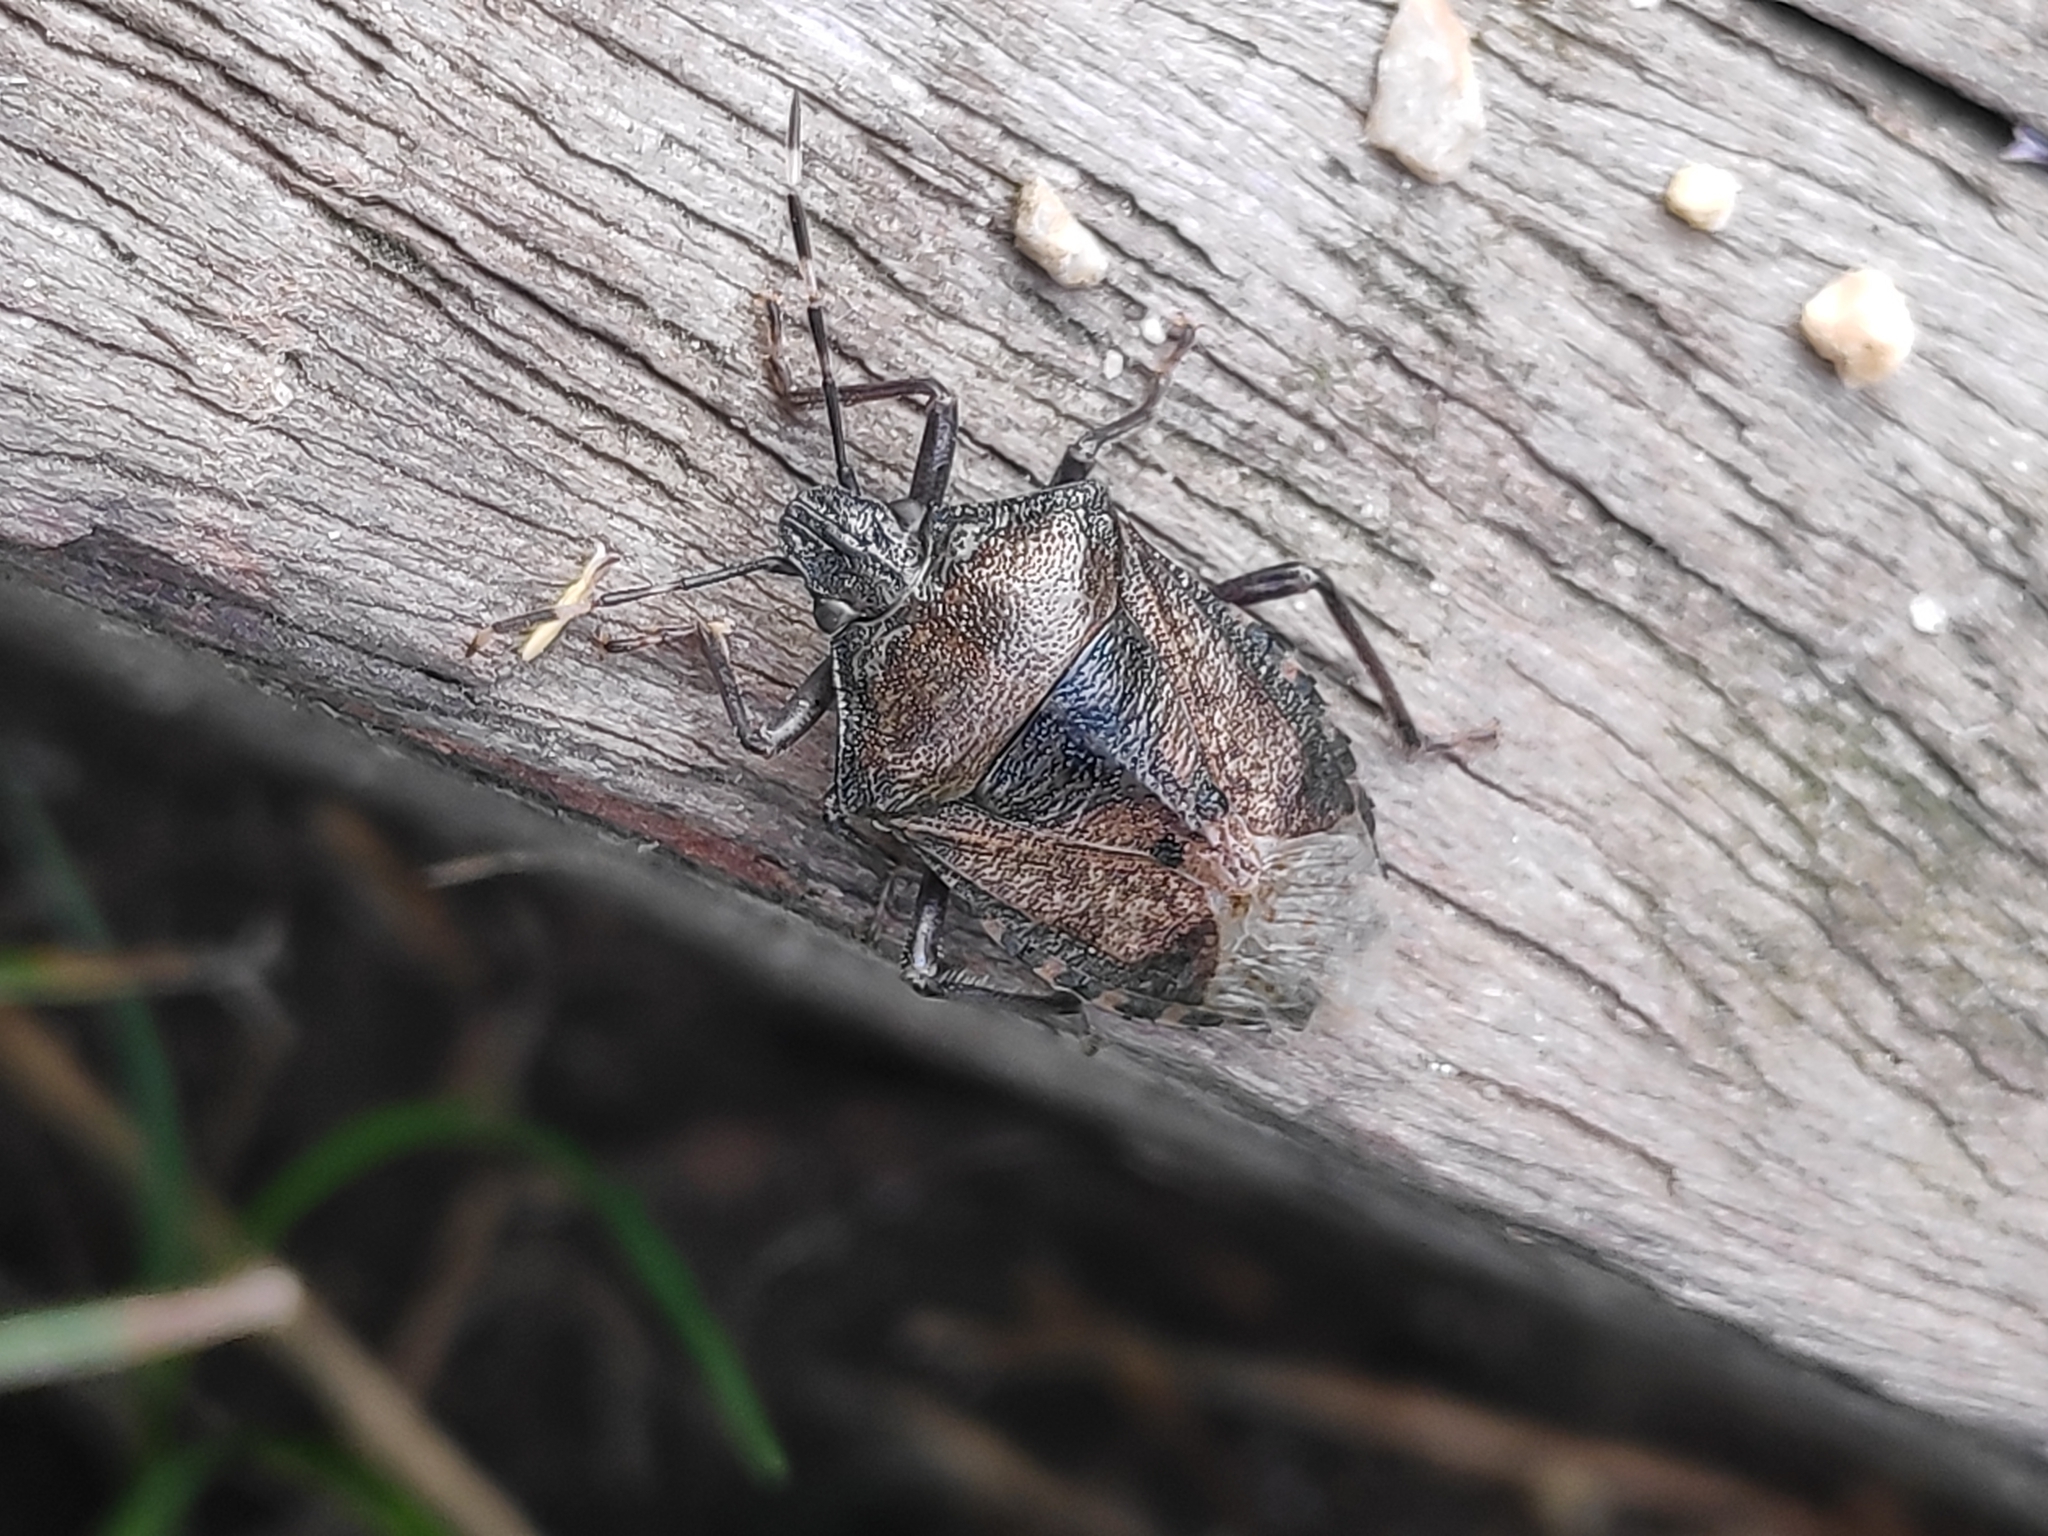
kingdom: Animalia
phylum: Arthropoda
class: Insecta
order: Hemiptera
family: Pentatomidae
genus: Rhaphigaster
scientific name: Rhaphigaster nebulosa
